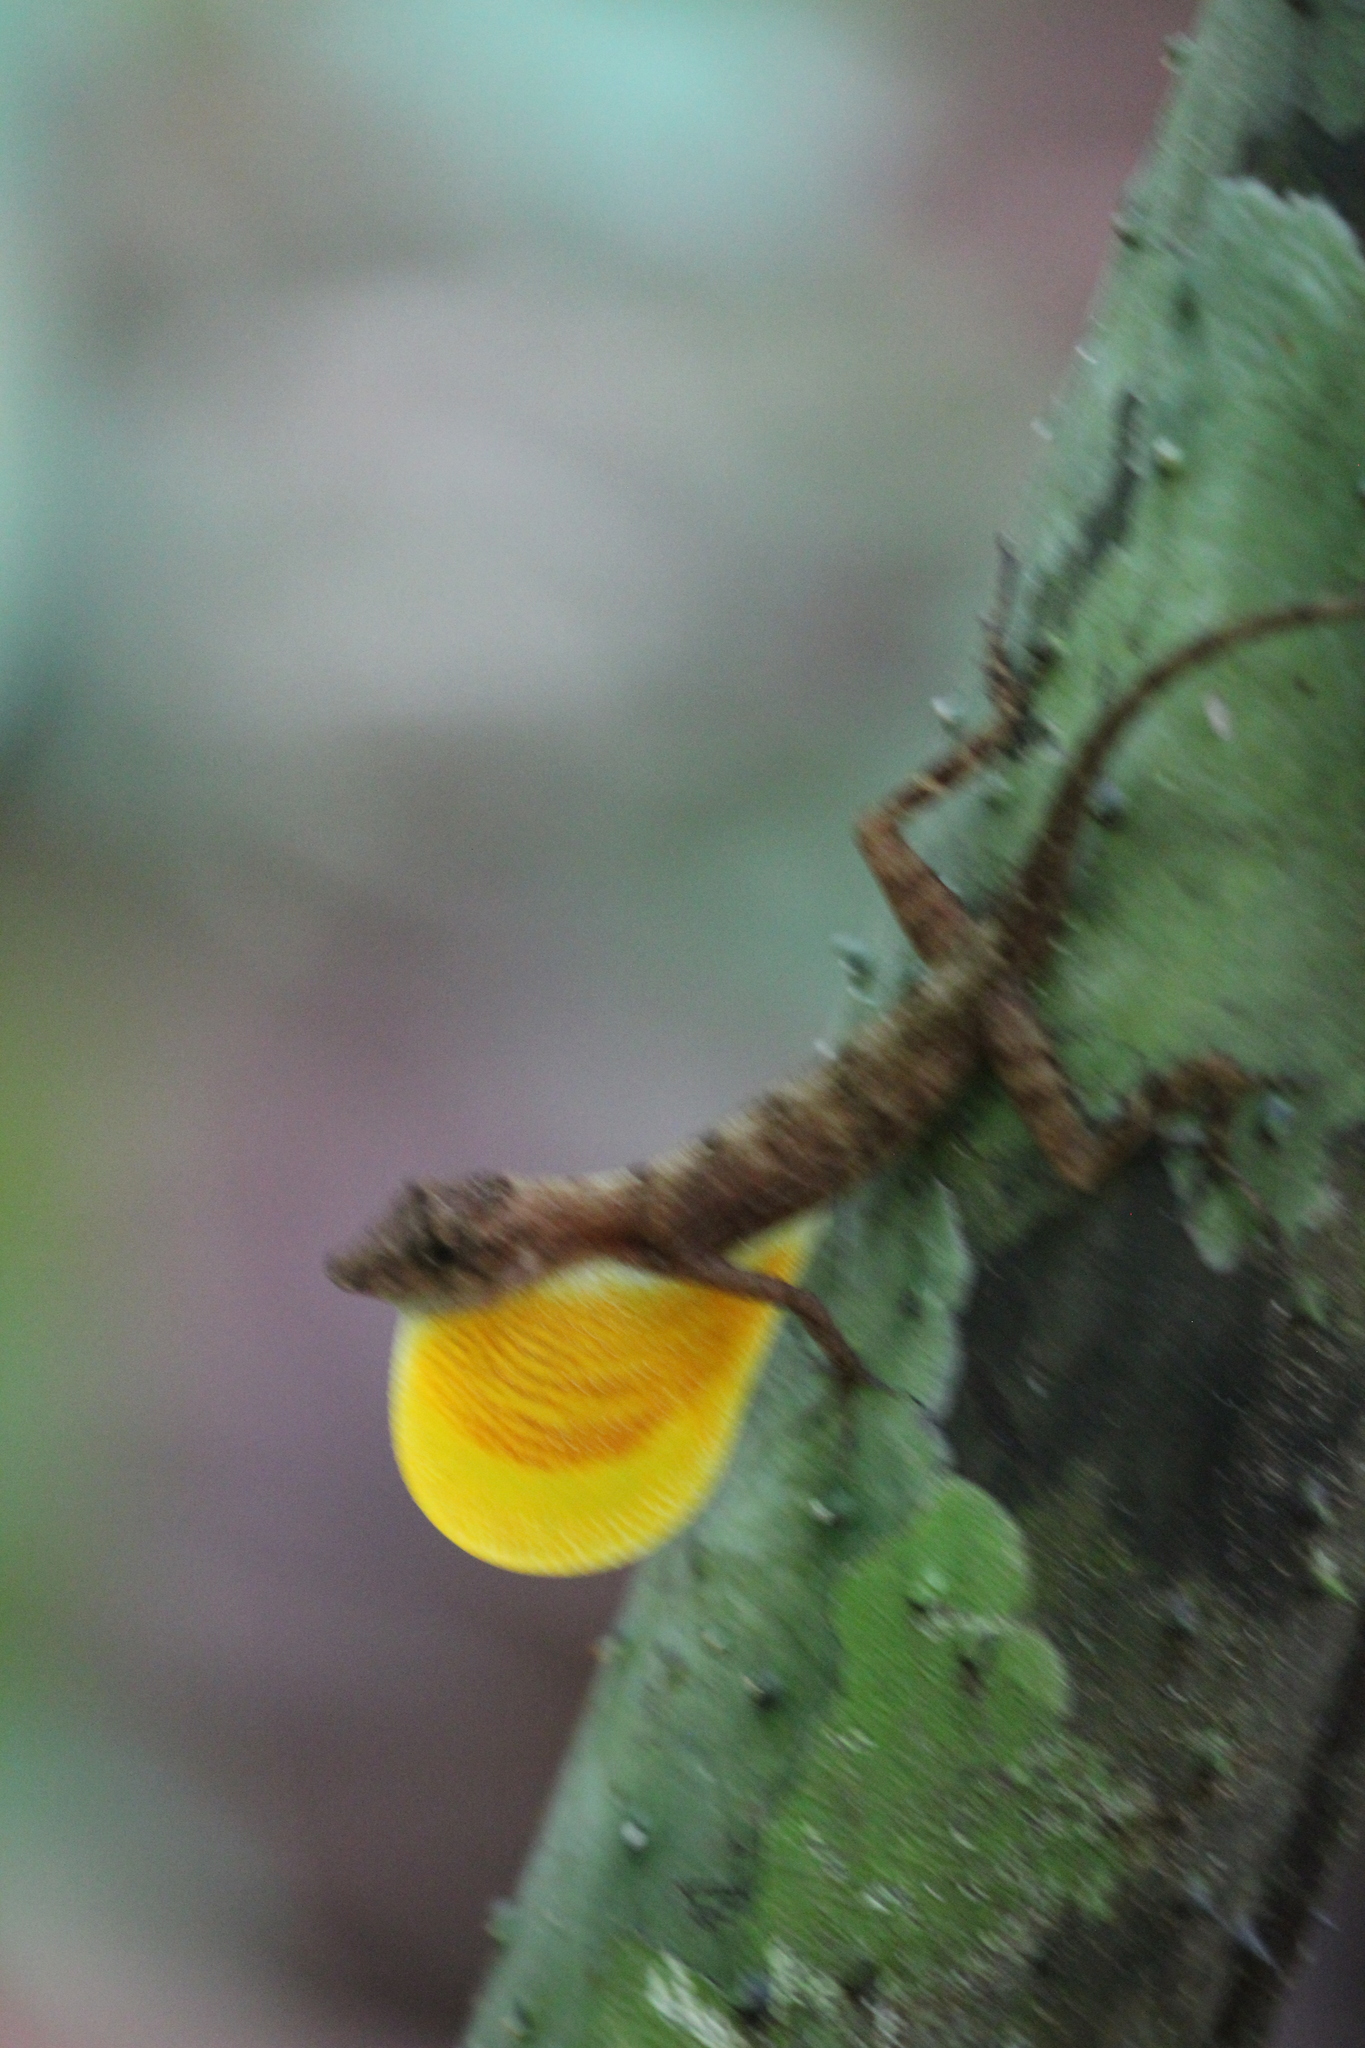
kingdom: Animalia
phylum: Chordata
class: Squamata
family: Dactyloidae
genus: Anolis
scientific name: Anolis osa
